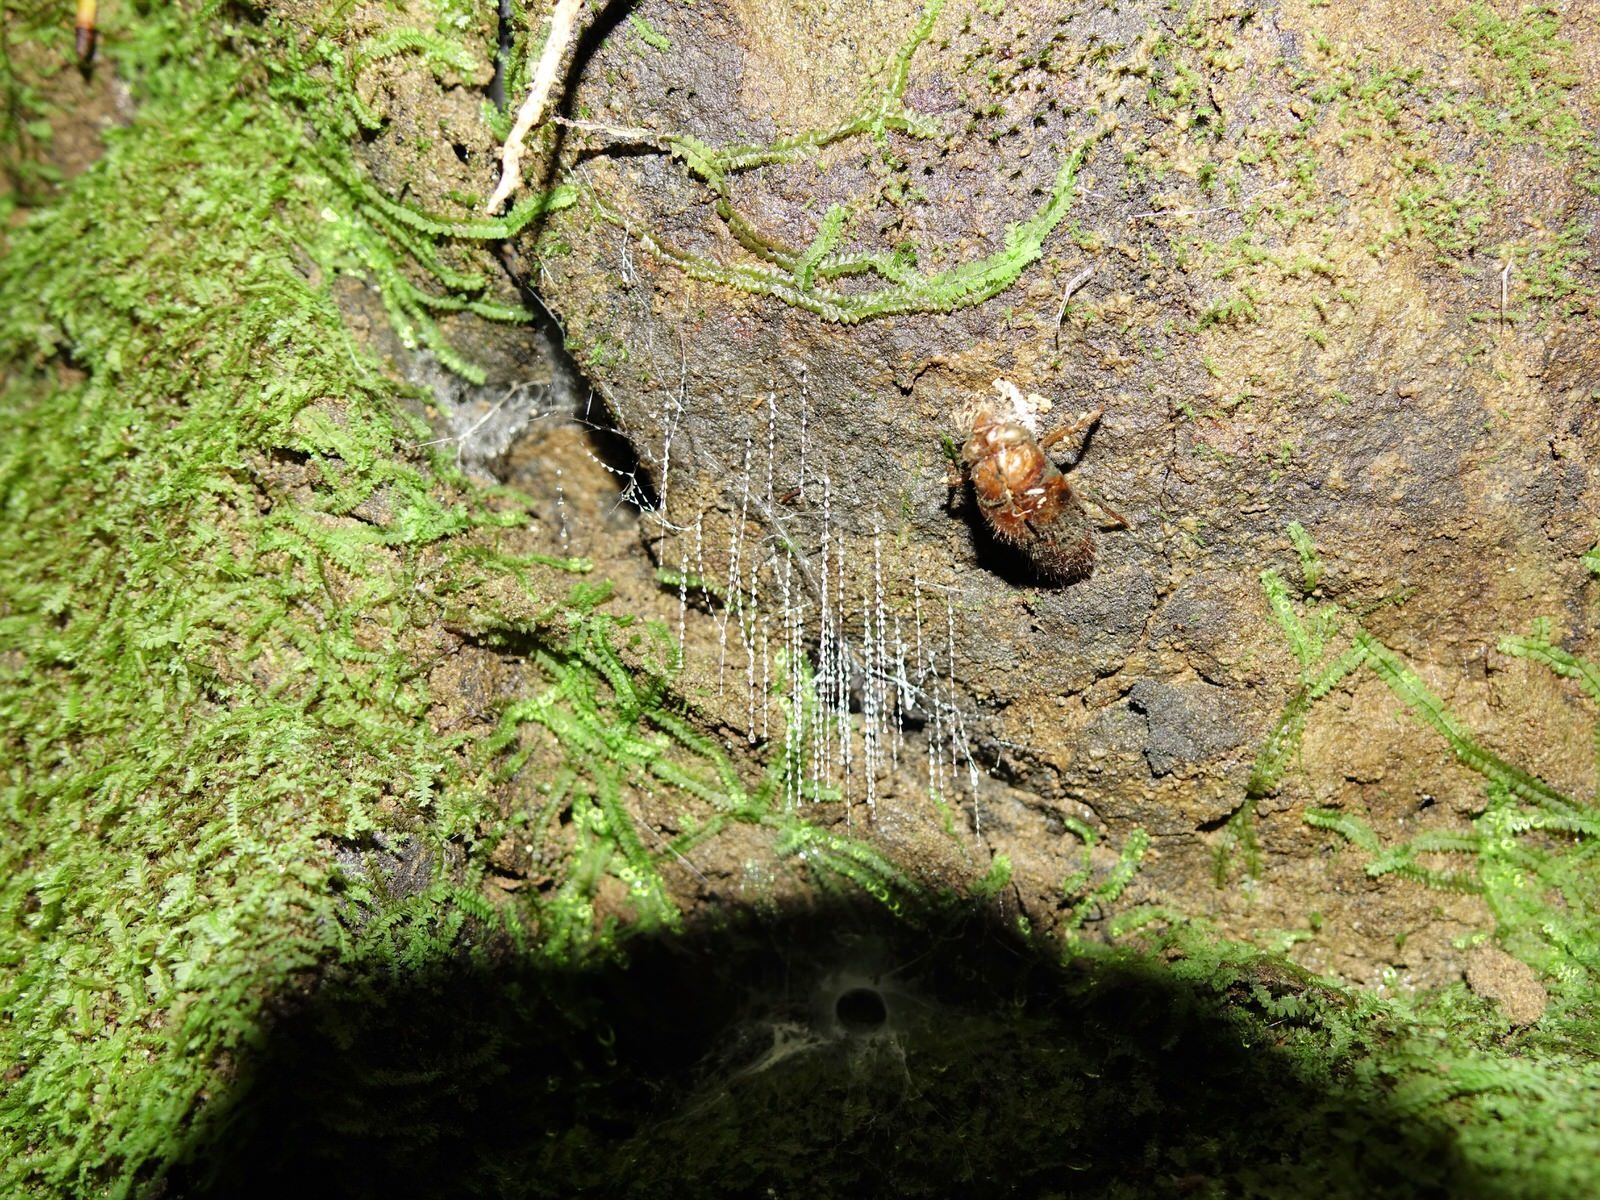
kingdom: Animalia
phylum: Arthropoda
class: Insecta
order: Diptera
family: Keroplatidae
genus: Arachnocampa
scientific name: Arachnocampa luminosa
